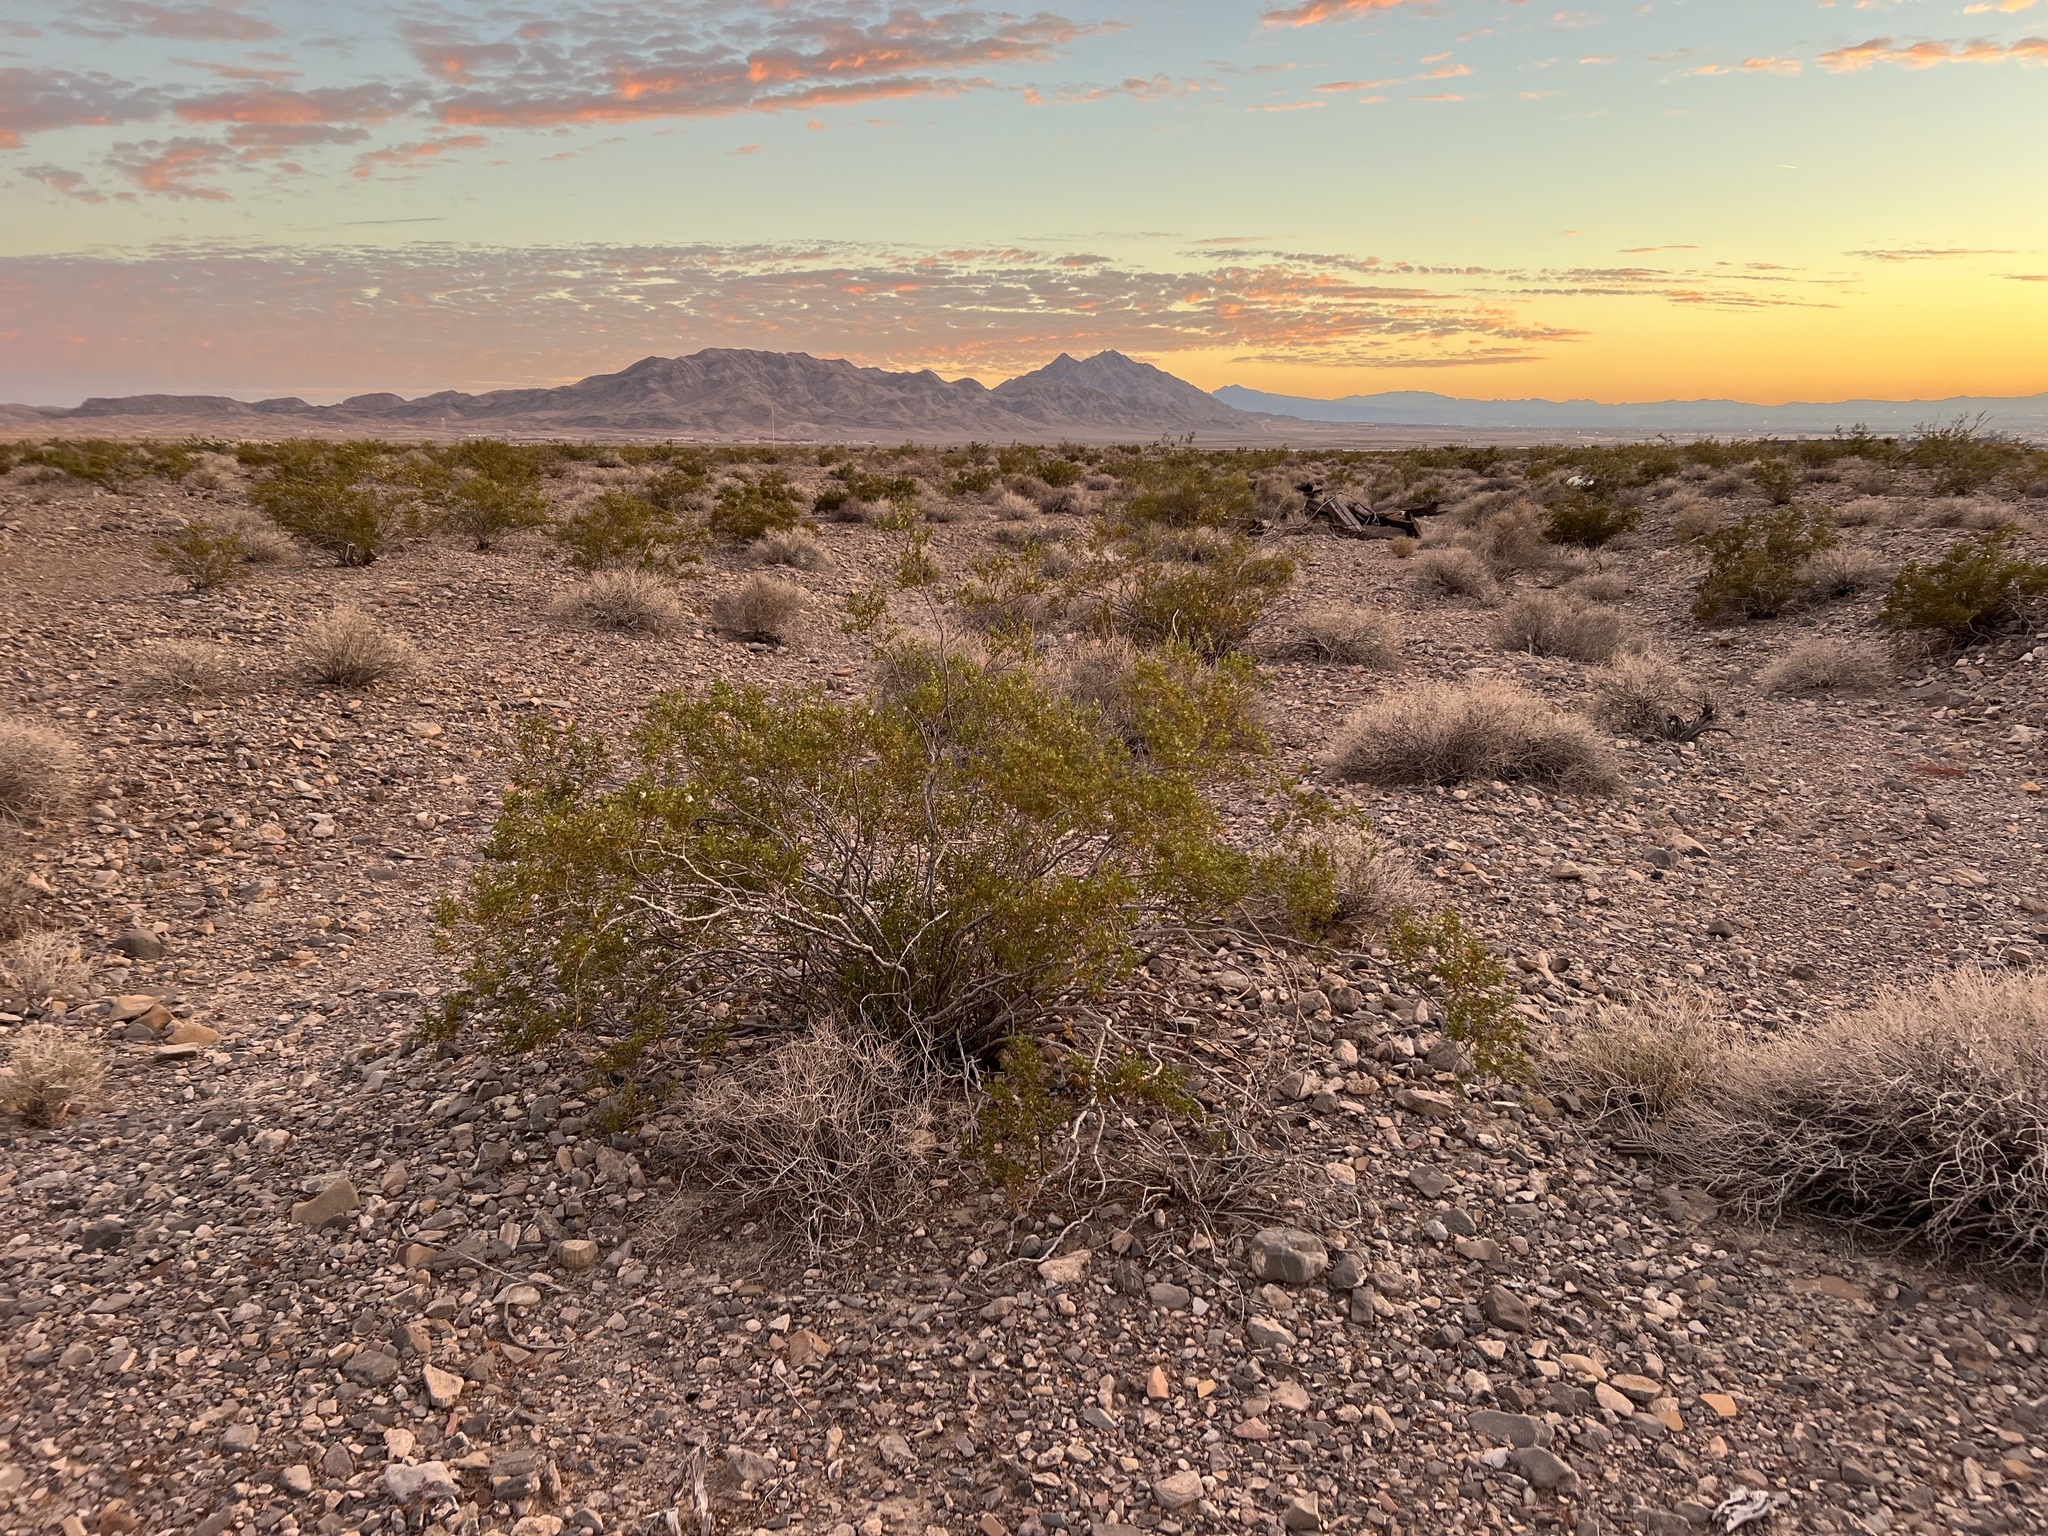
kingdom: Plantae
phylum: Tracheophyta
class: Magnoliopsida
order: Zygophyllales
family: Zygophyllaceae
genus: Larrea
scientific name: Larrea tridentata
